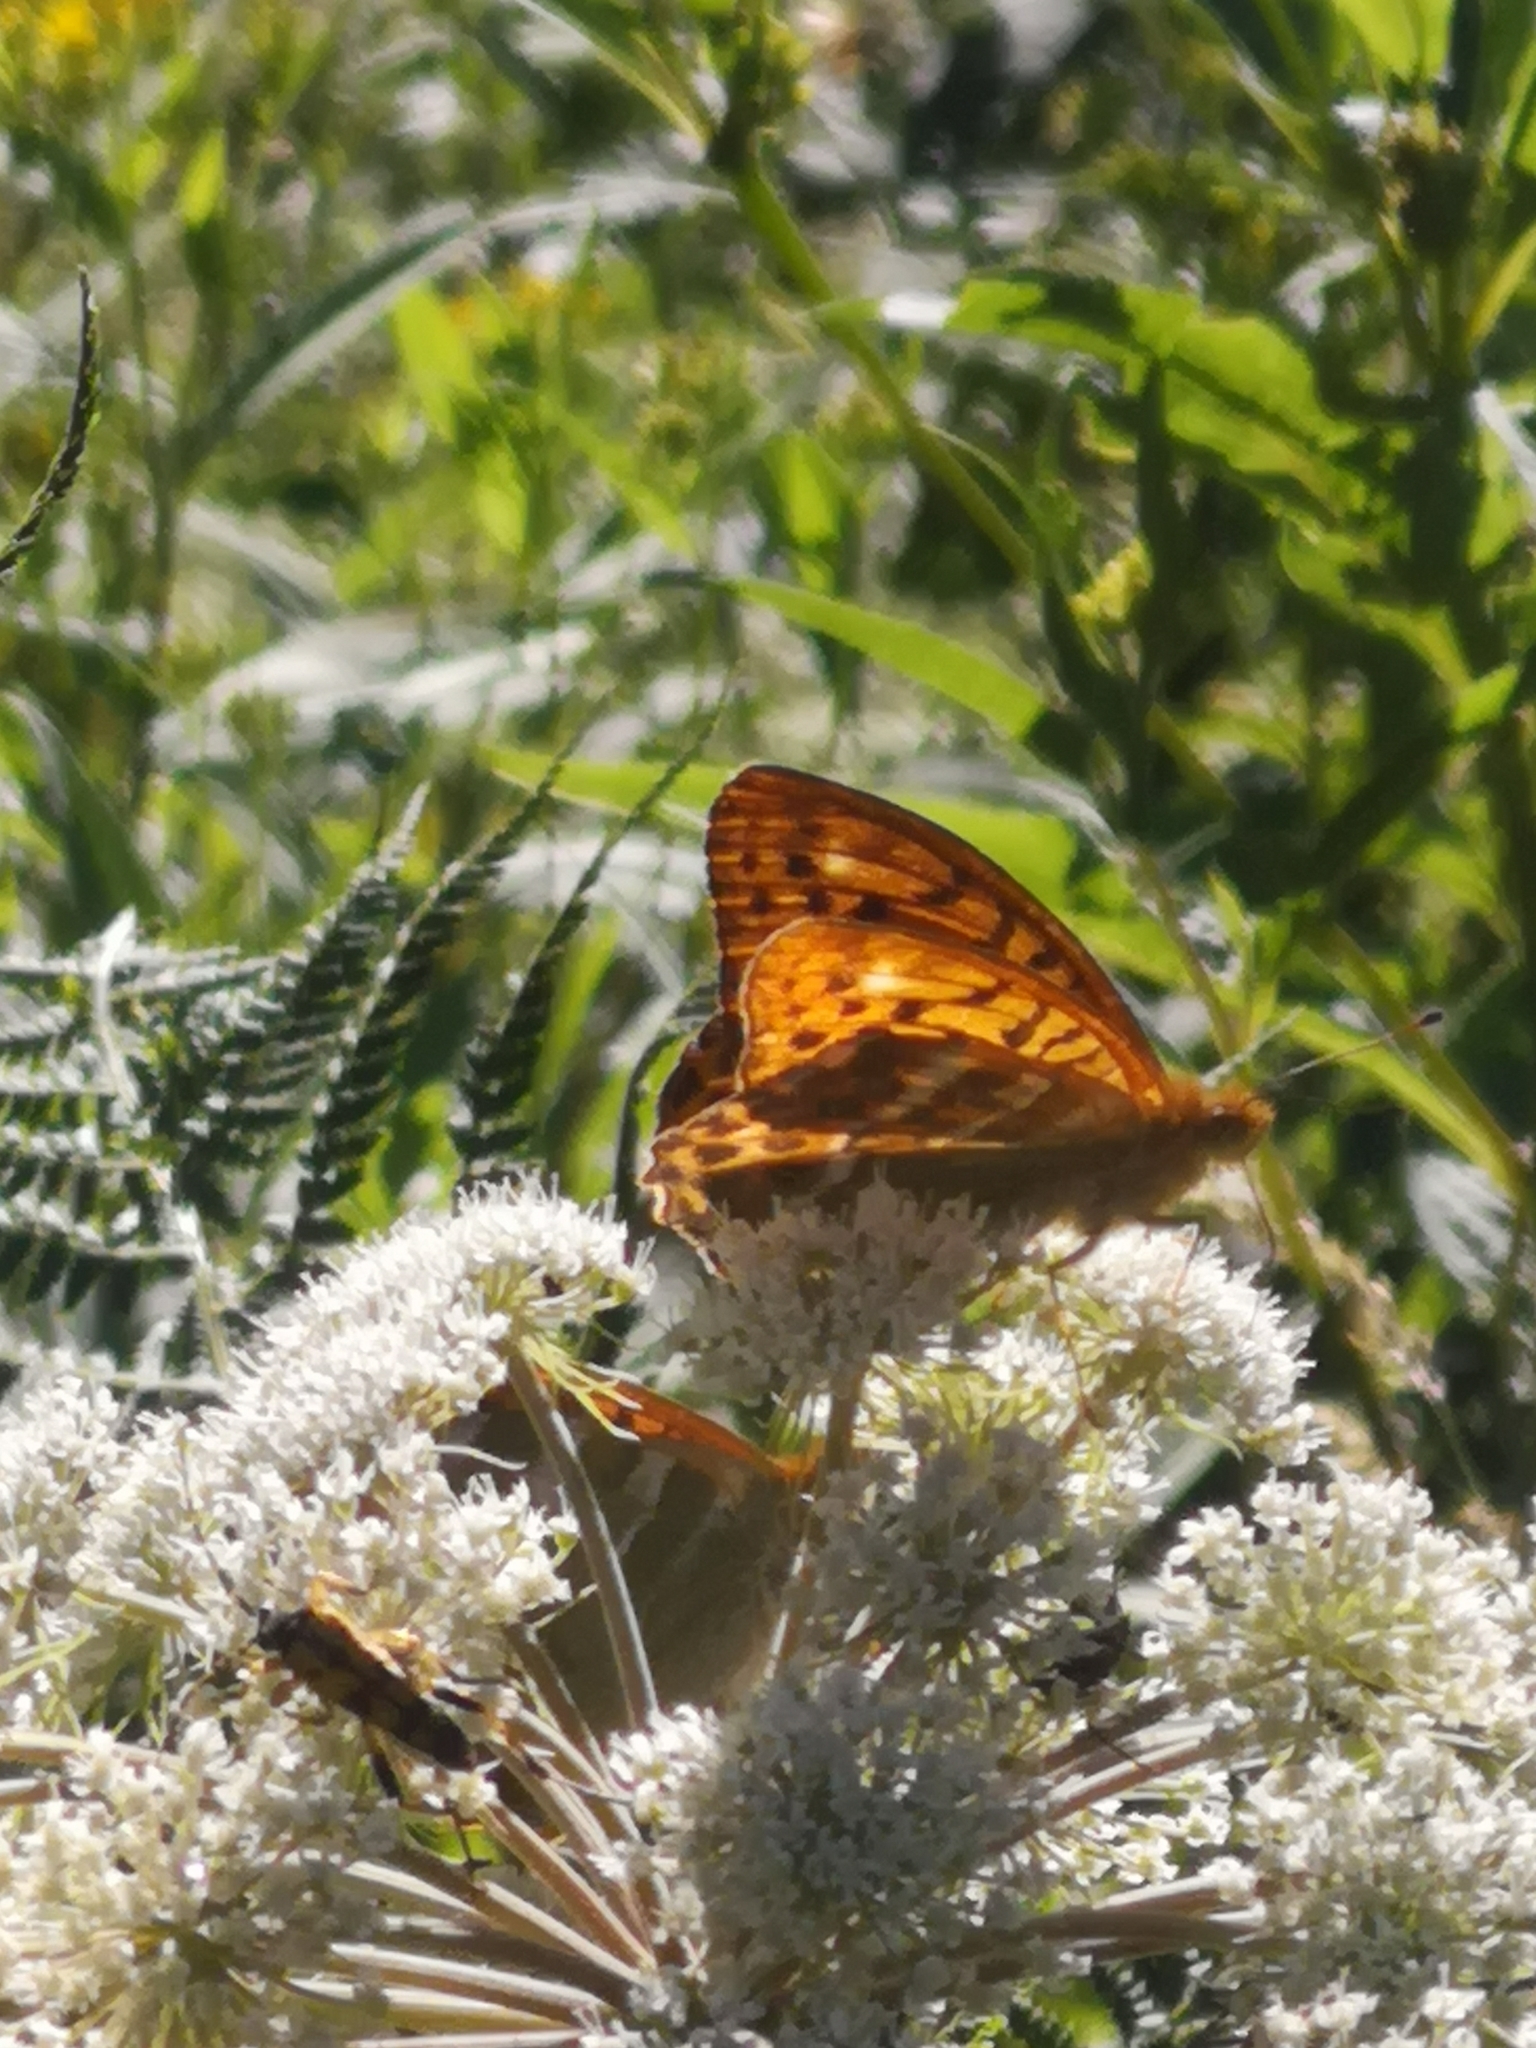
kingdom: Animalia
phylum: Arthropoda
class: Insecta
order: Lepidoptera
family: Nymphalidae
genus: Argynnis
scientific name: Argynnis paphia
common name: Silver-washed fritillary
